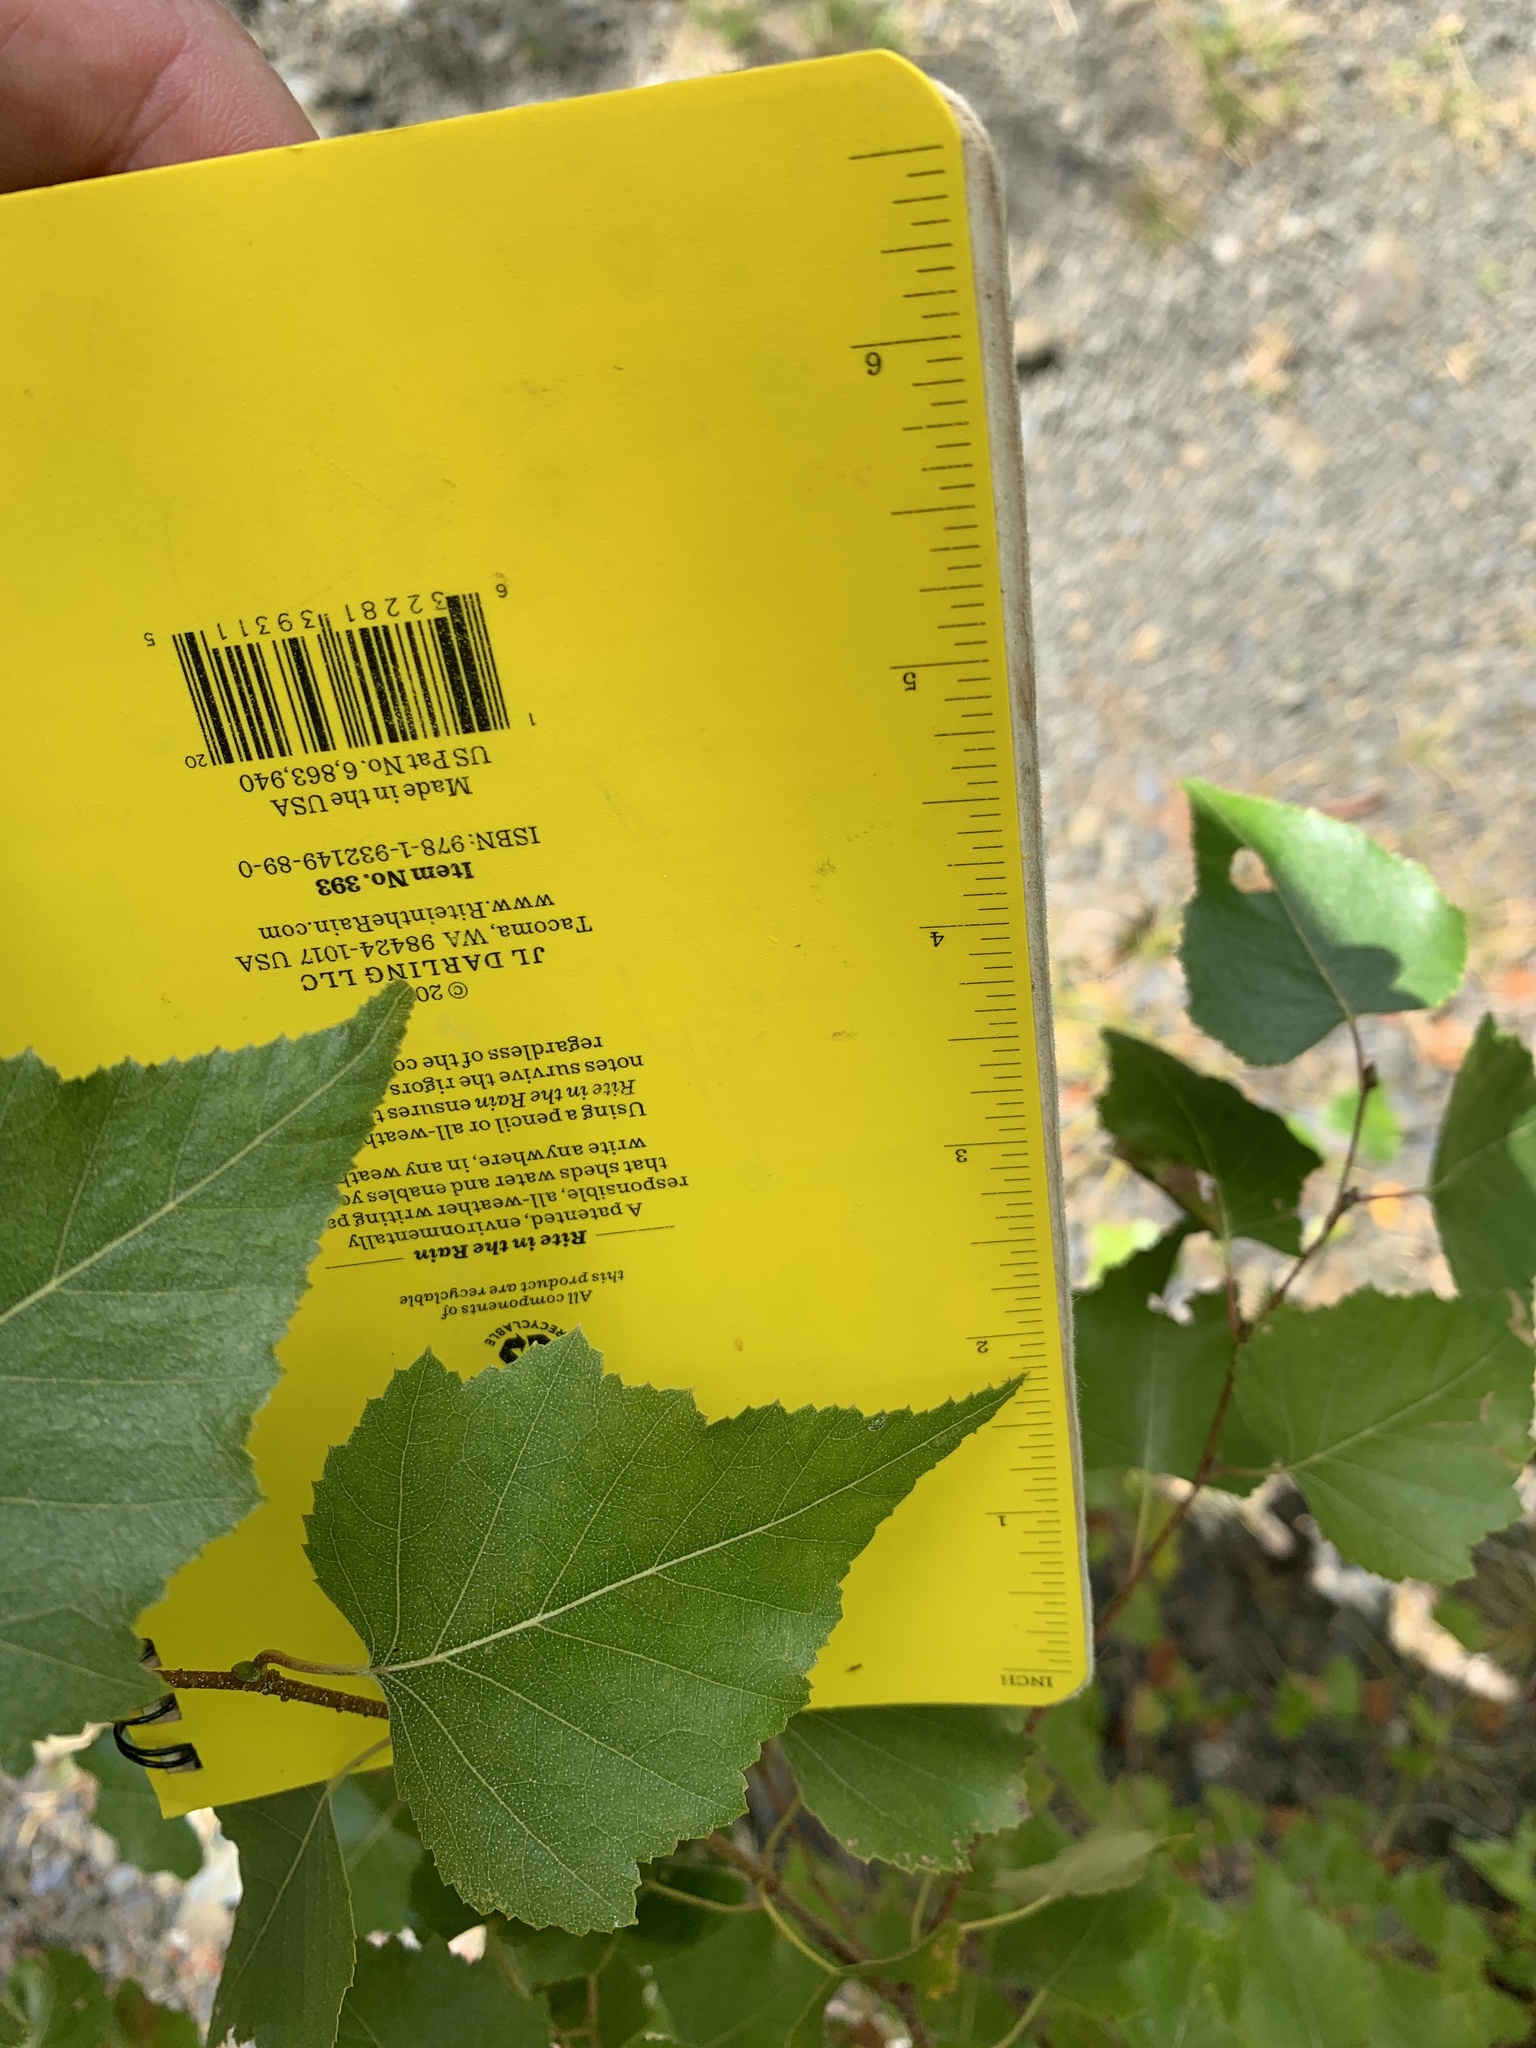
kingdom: Plantae
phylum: Tracheophyta
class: Magnoliopsida
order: Fagales
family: Betulaceae
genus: Betula
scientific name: Betula populifolia
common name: Fire birch
